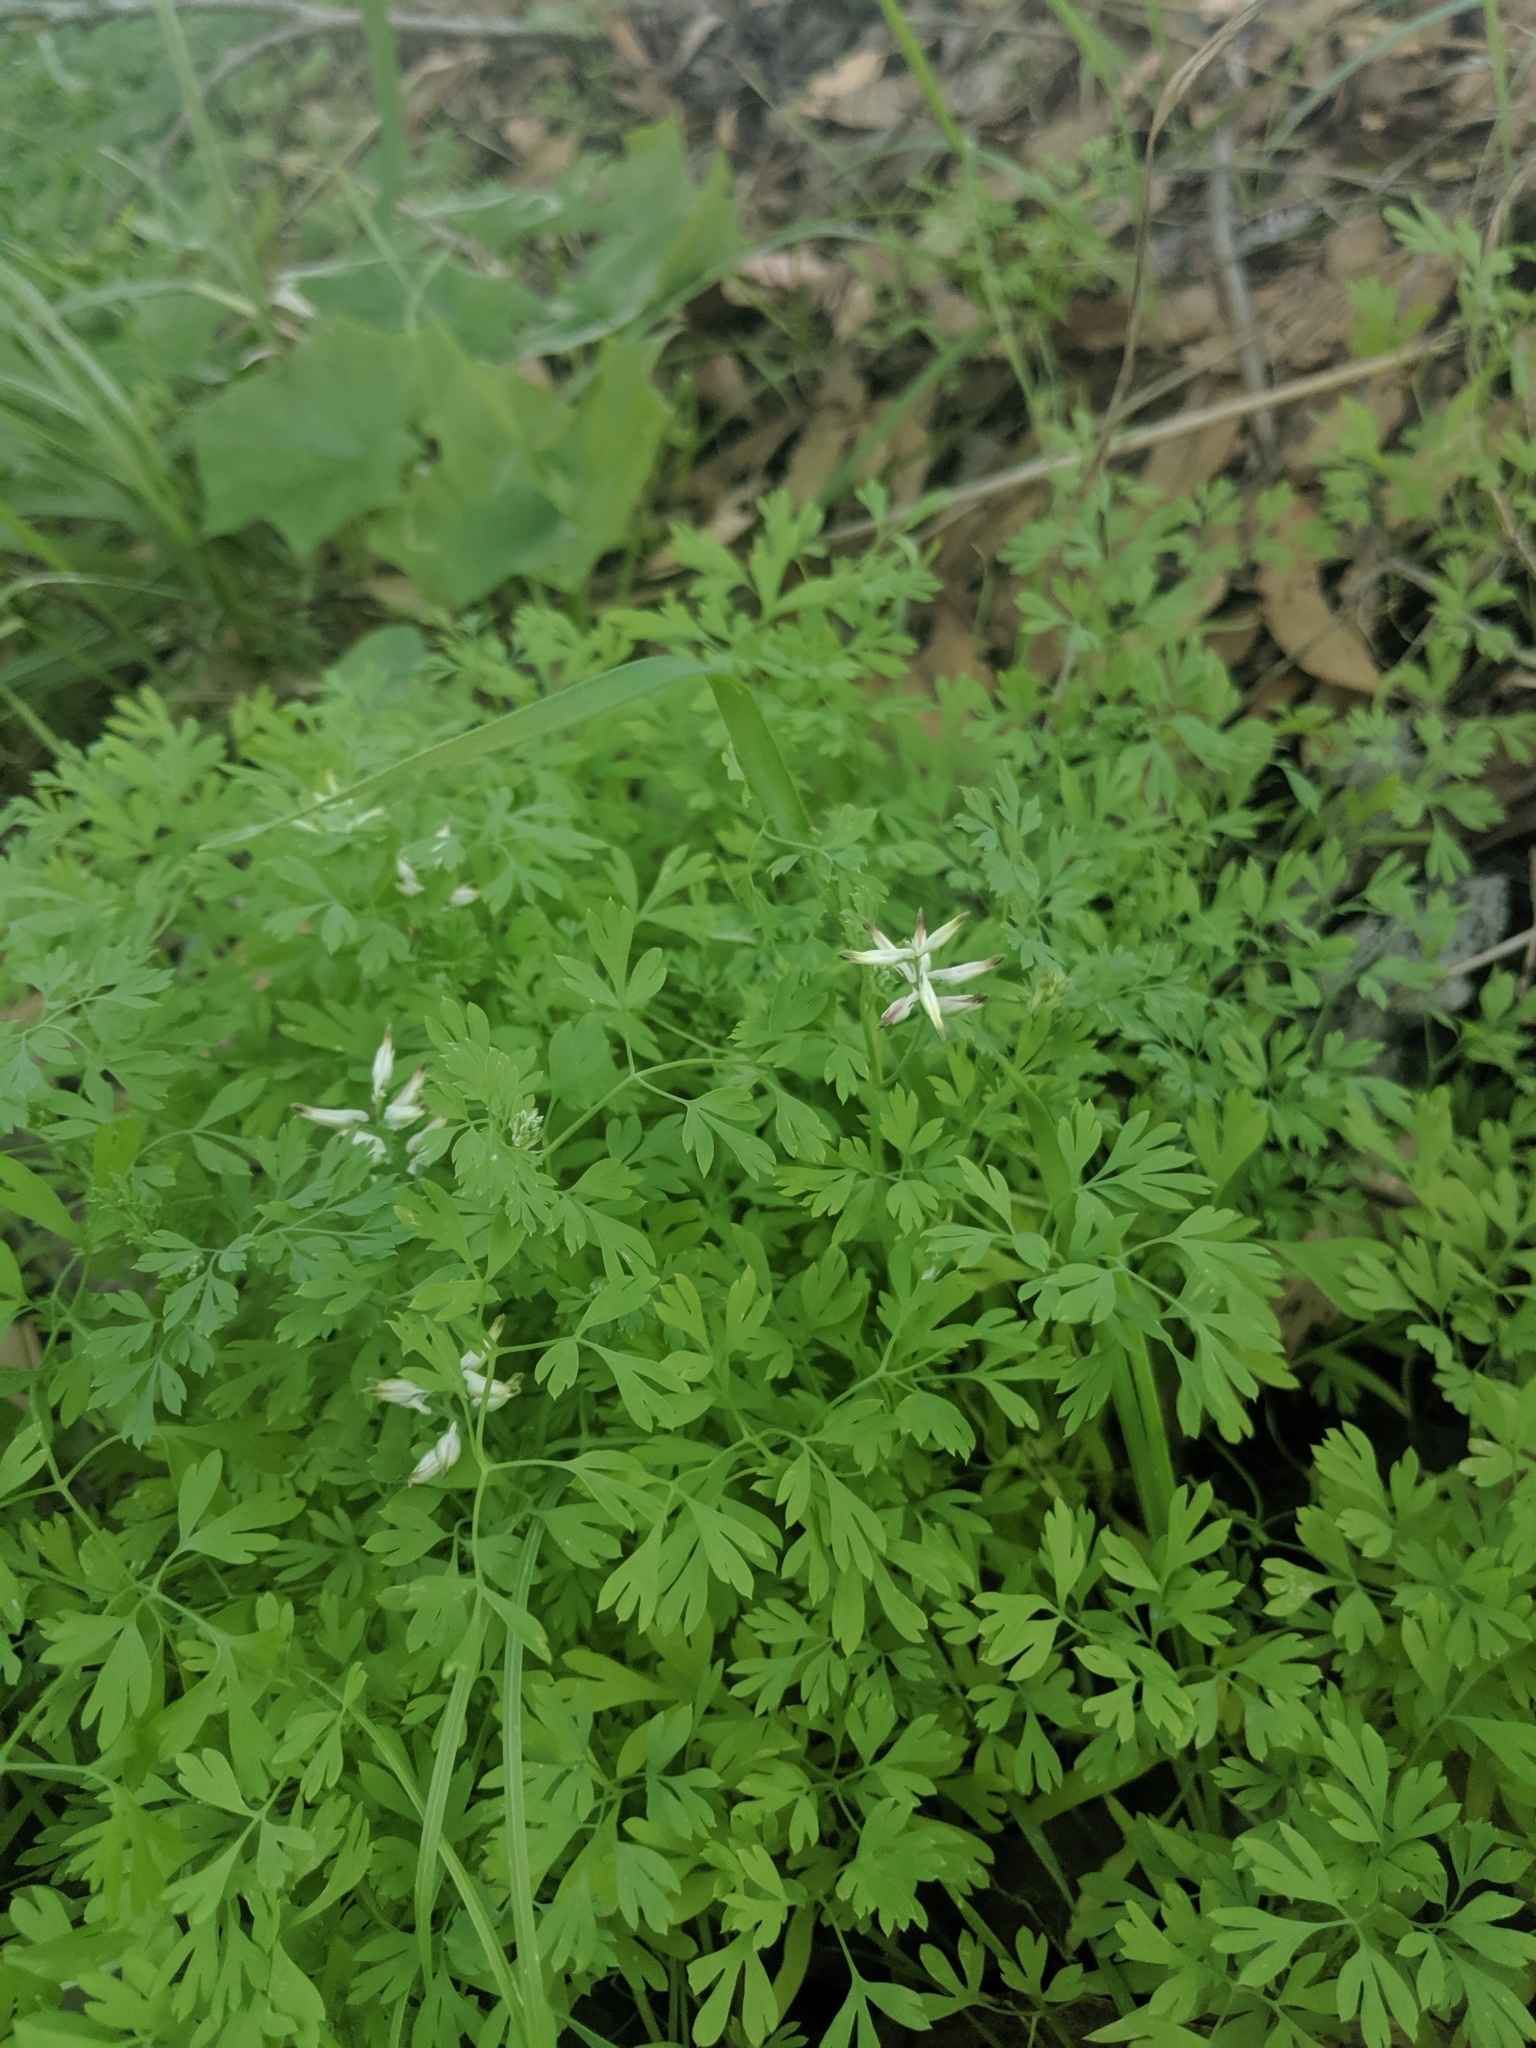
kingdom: Plantae
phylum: Tracheophyta
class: Magnoliopsida
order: Ranunculales
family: Papaveraceae
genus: Fumaria
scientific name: Fumaria
